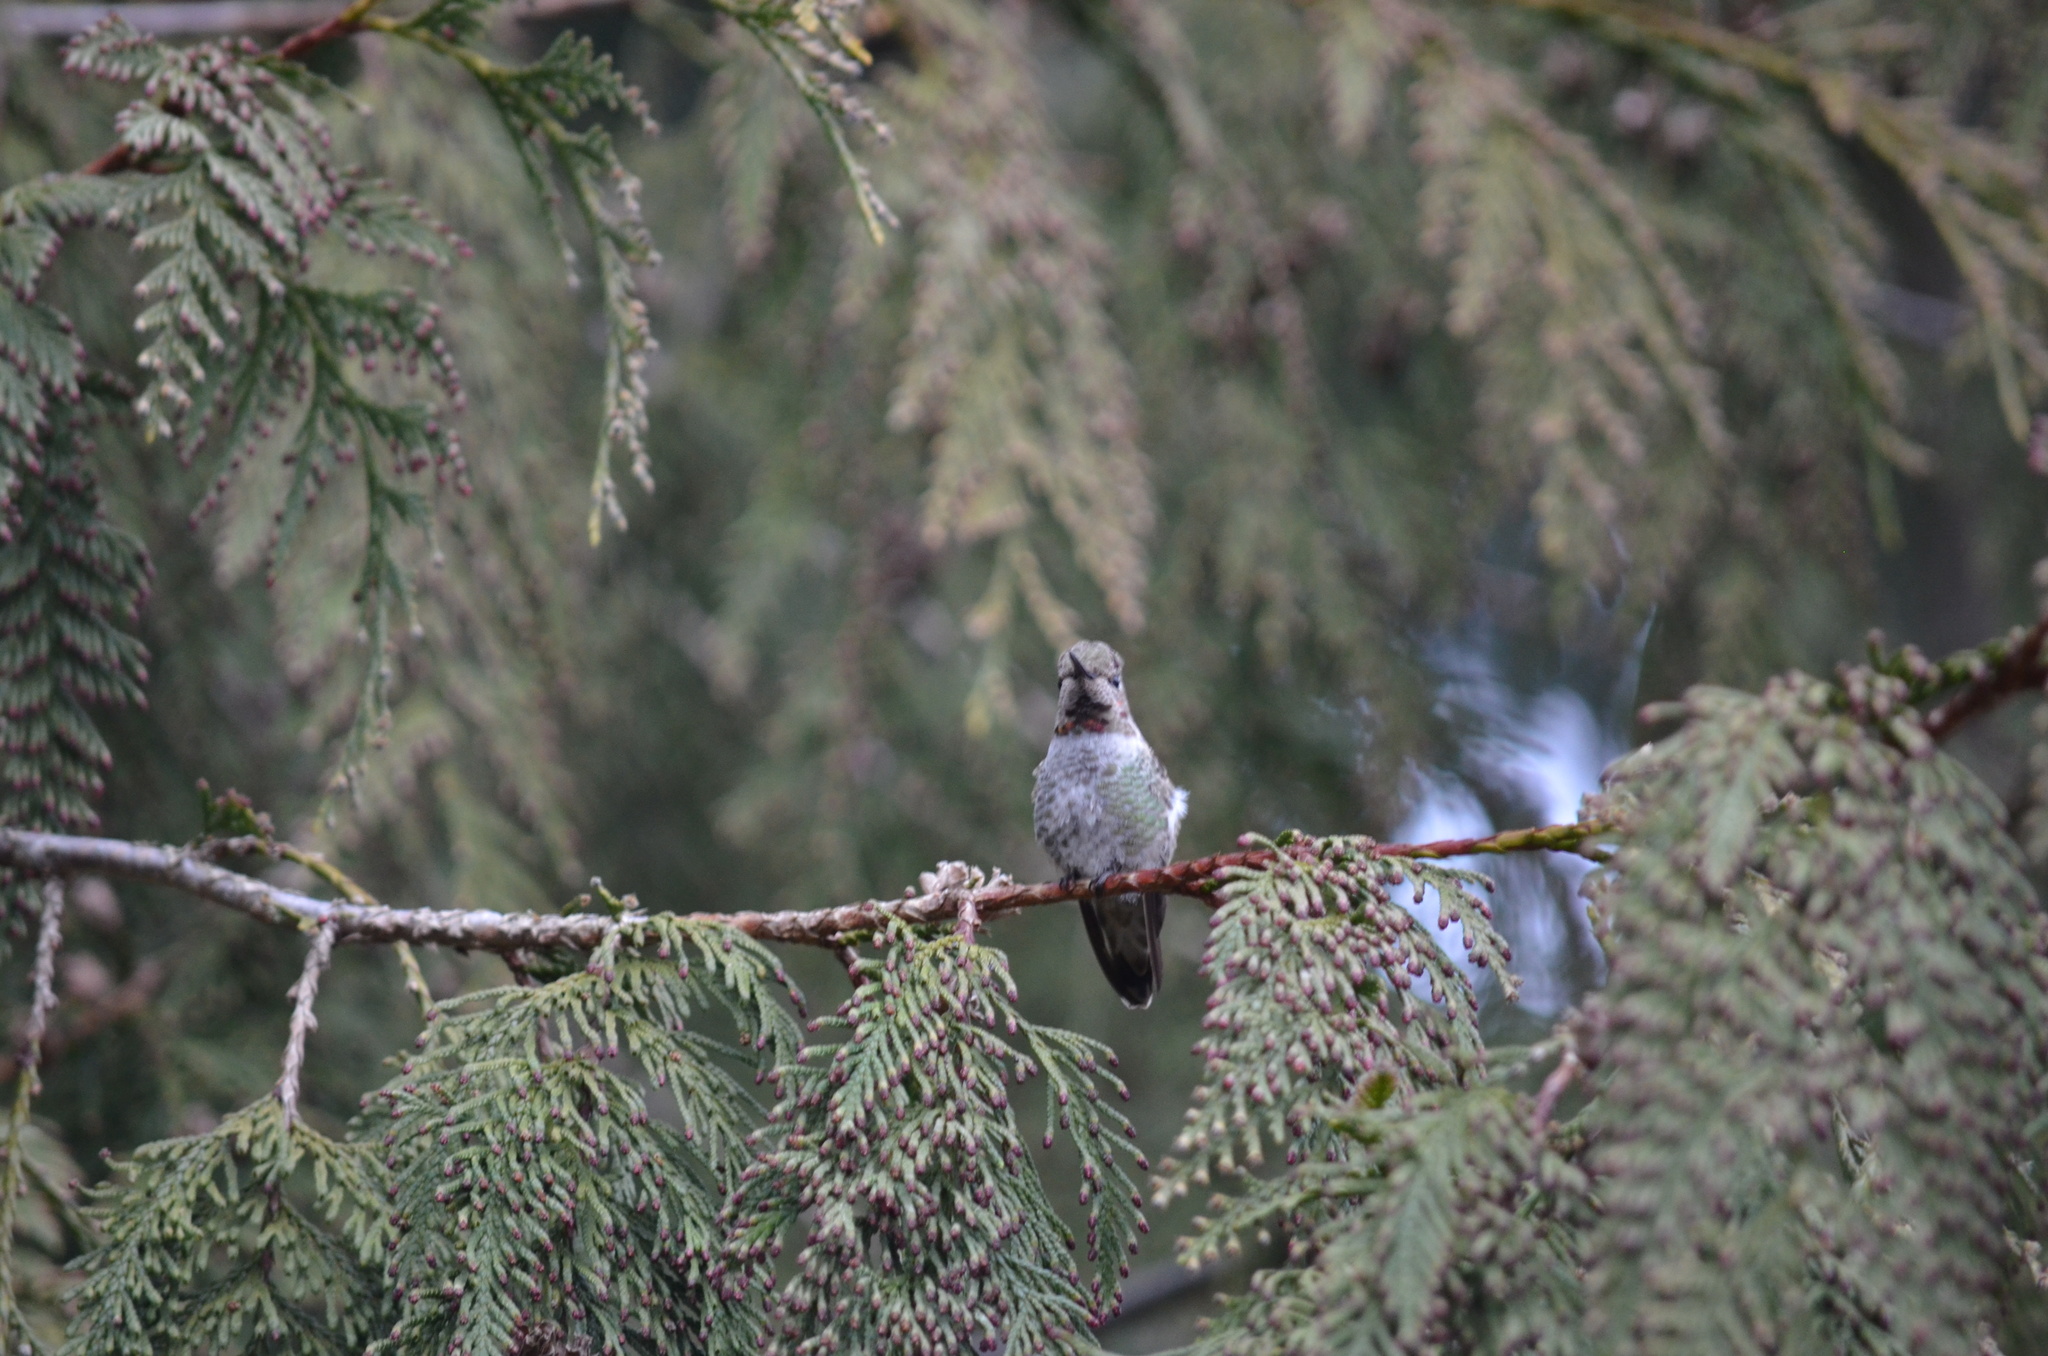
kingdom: Animalia
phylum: Chordata
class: Aves
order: Apodiformes
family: Trochilidae
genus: Calypte
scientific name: Calypte anna
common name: Anna's hummingbird
